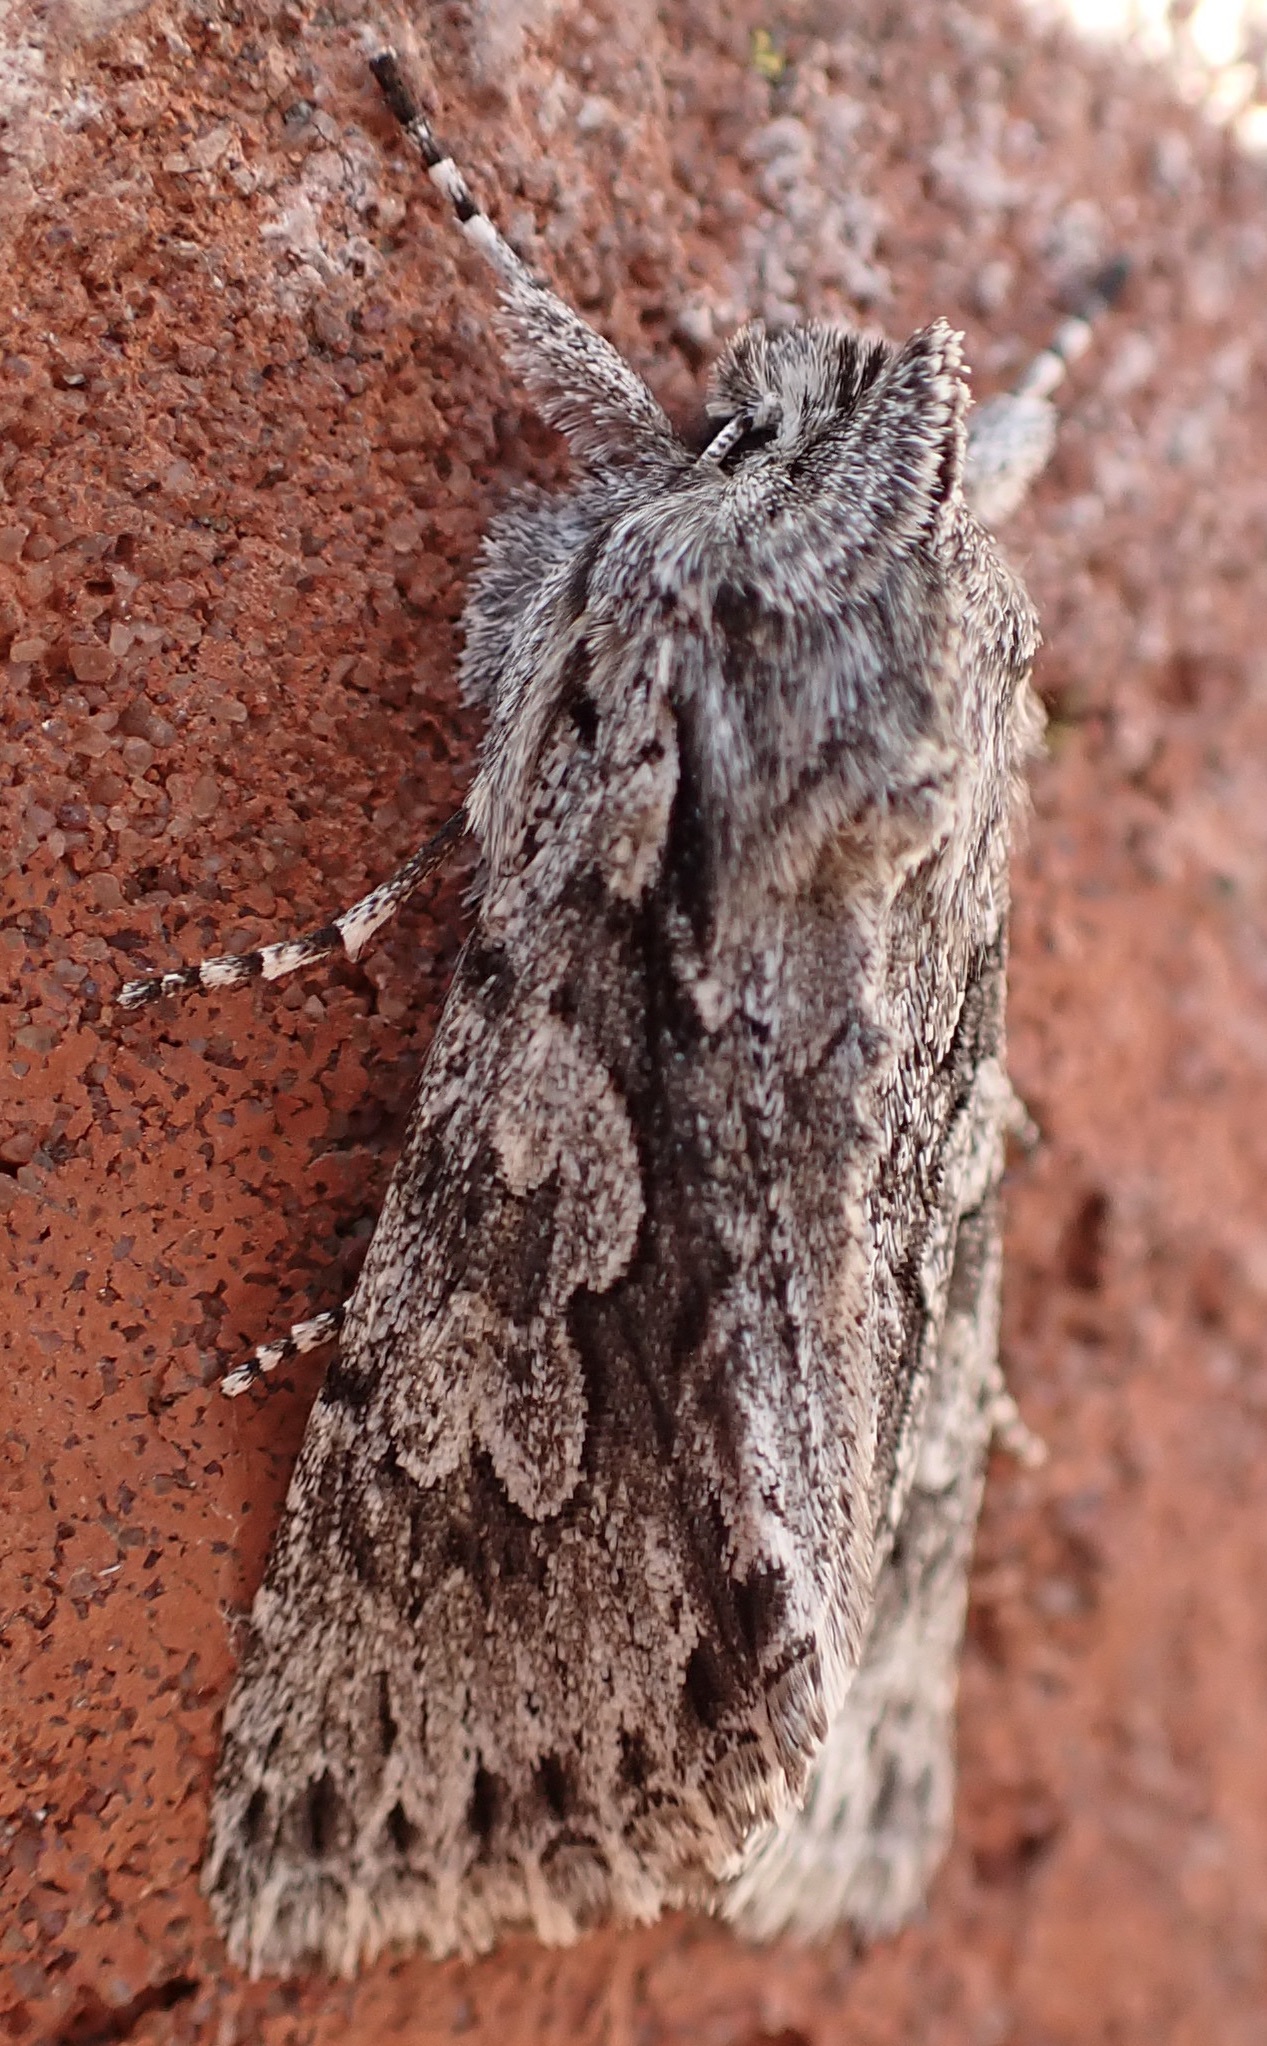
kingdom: Animalia
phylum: Arthropoda
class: Insecta
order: Lepidoptera
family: Noctuidae
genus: Xylocampa
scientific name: Xylocampa areola
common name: Early grey
